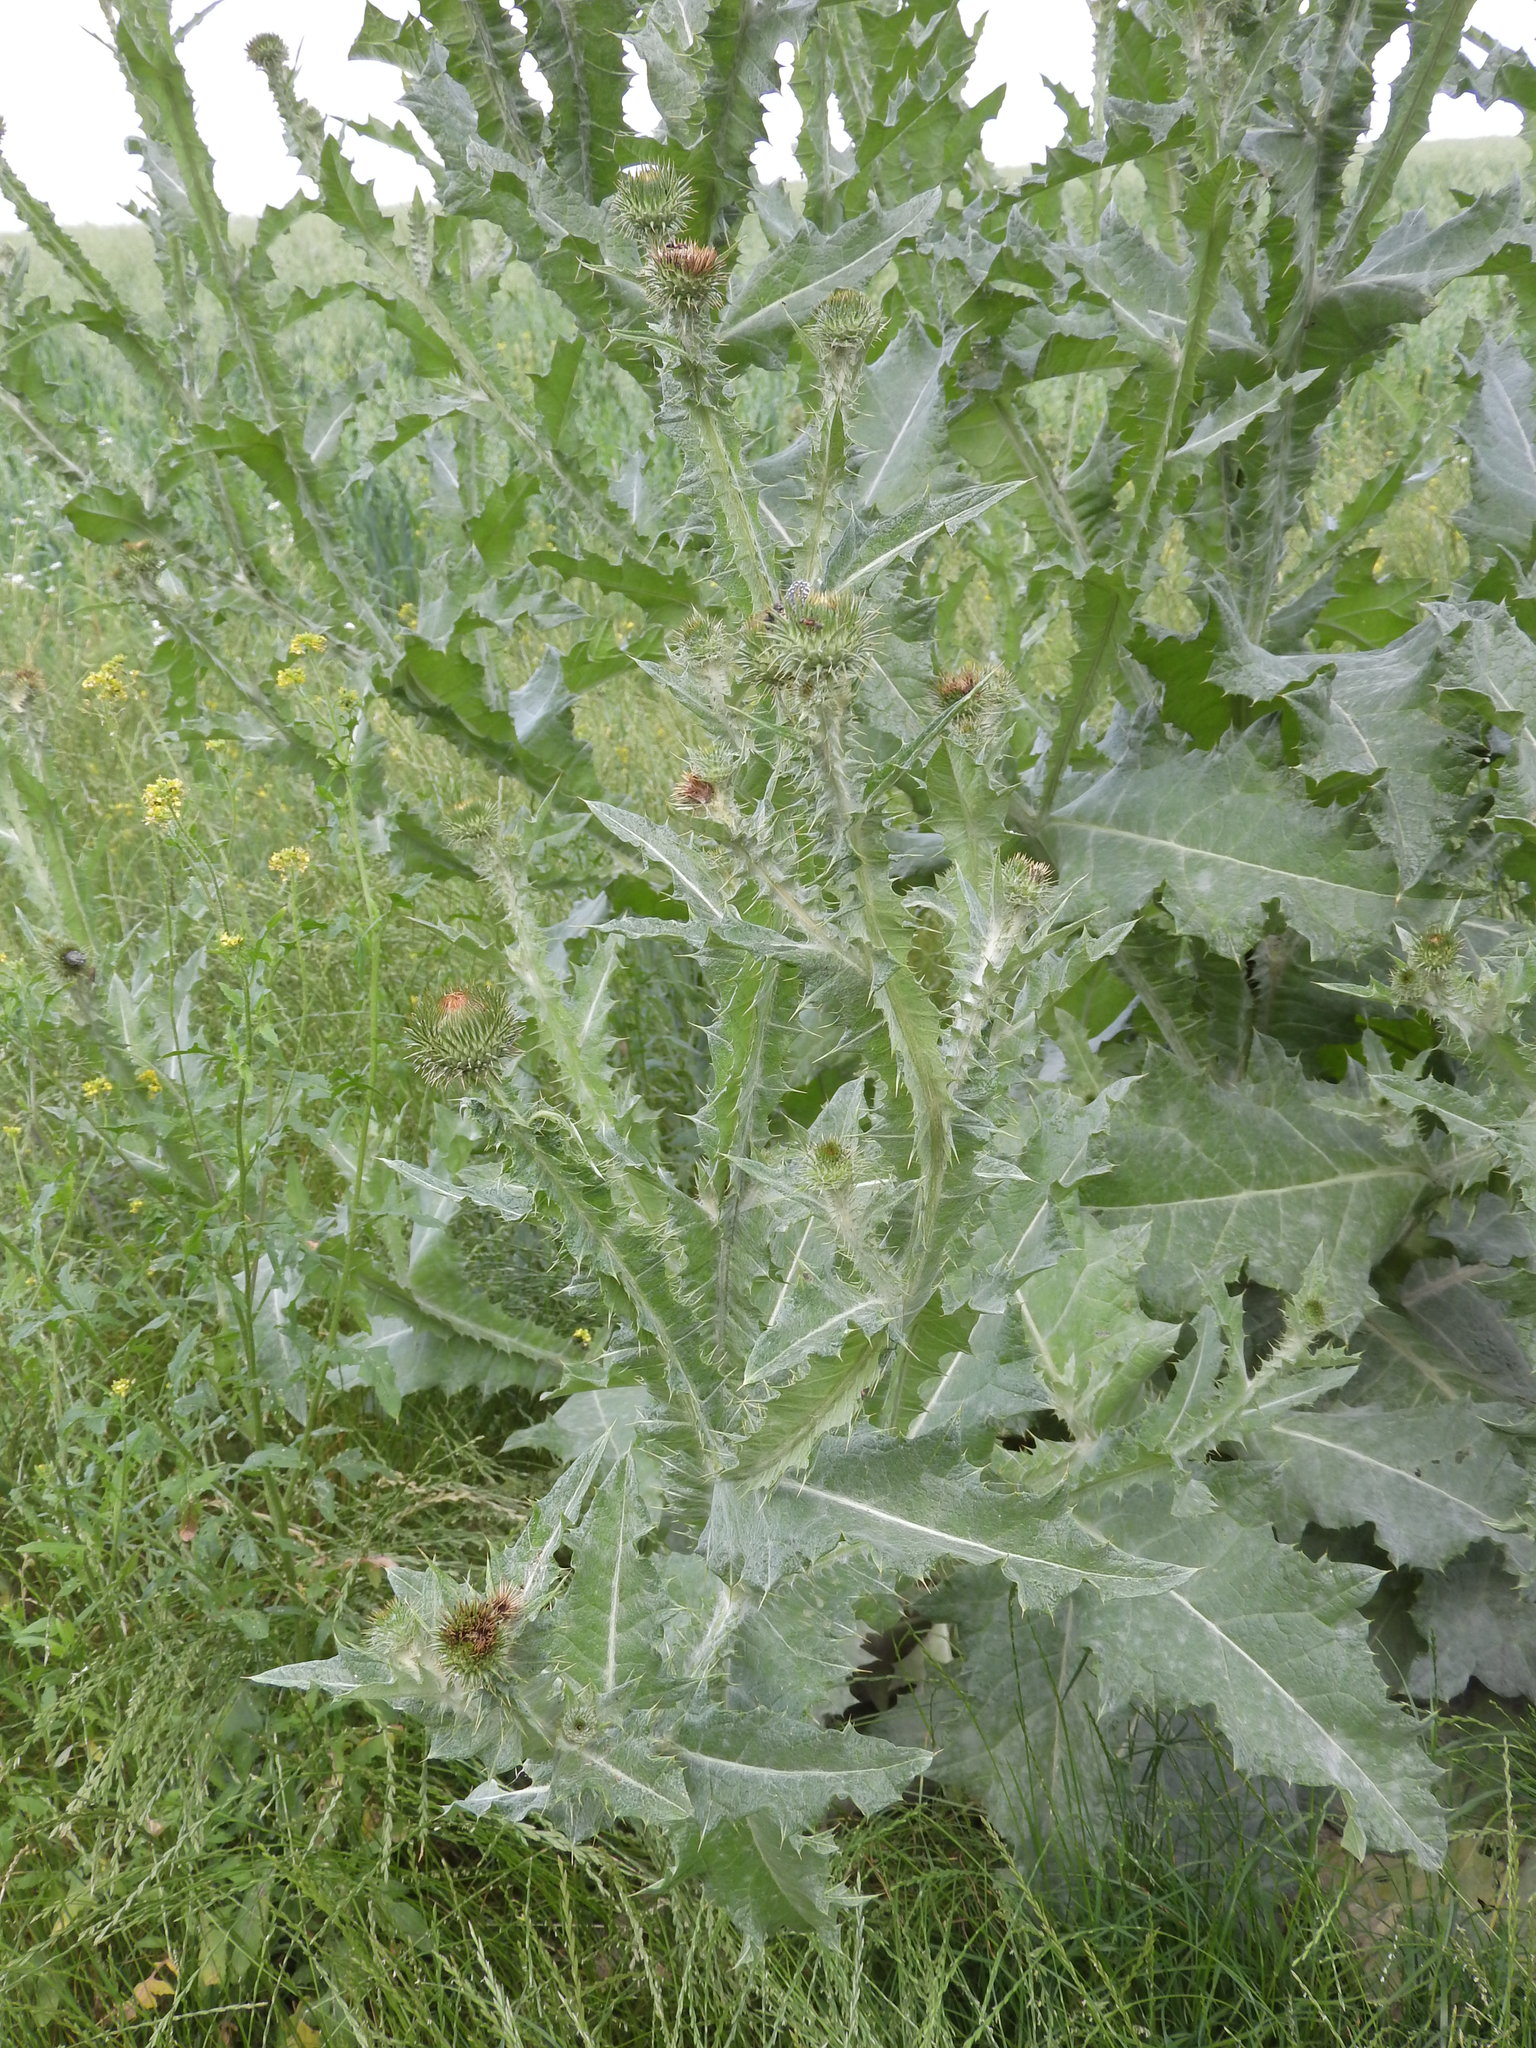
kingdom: Plantae
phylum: Tracheophyta
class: Magnoliopsida
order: Asterales
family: Asteraceae
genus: Onopordum
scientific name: Onopordum acanthium
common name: Scotch thistle
